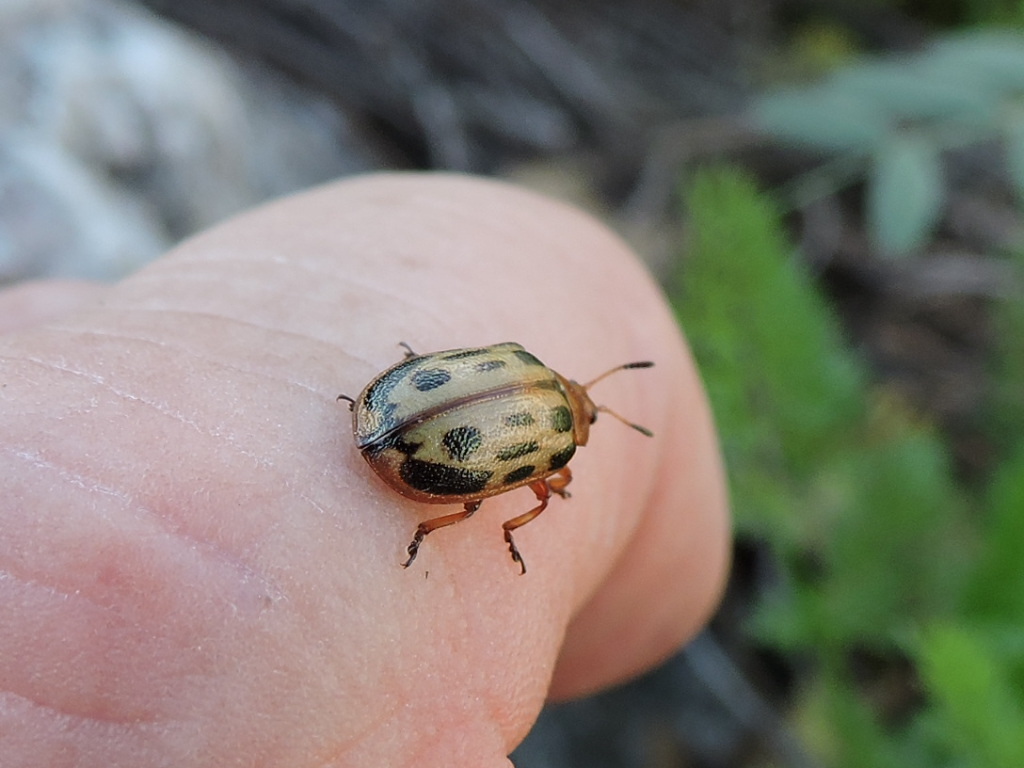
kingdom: Animalia
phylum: Arthropoda
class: Insecta
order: Coleoptera
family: Chrysomelidae
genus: Chrysomela
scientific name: Chrysomela texana
